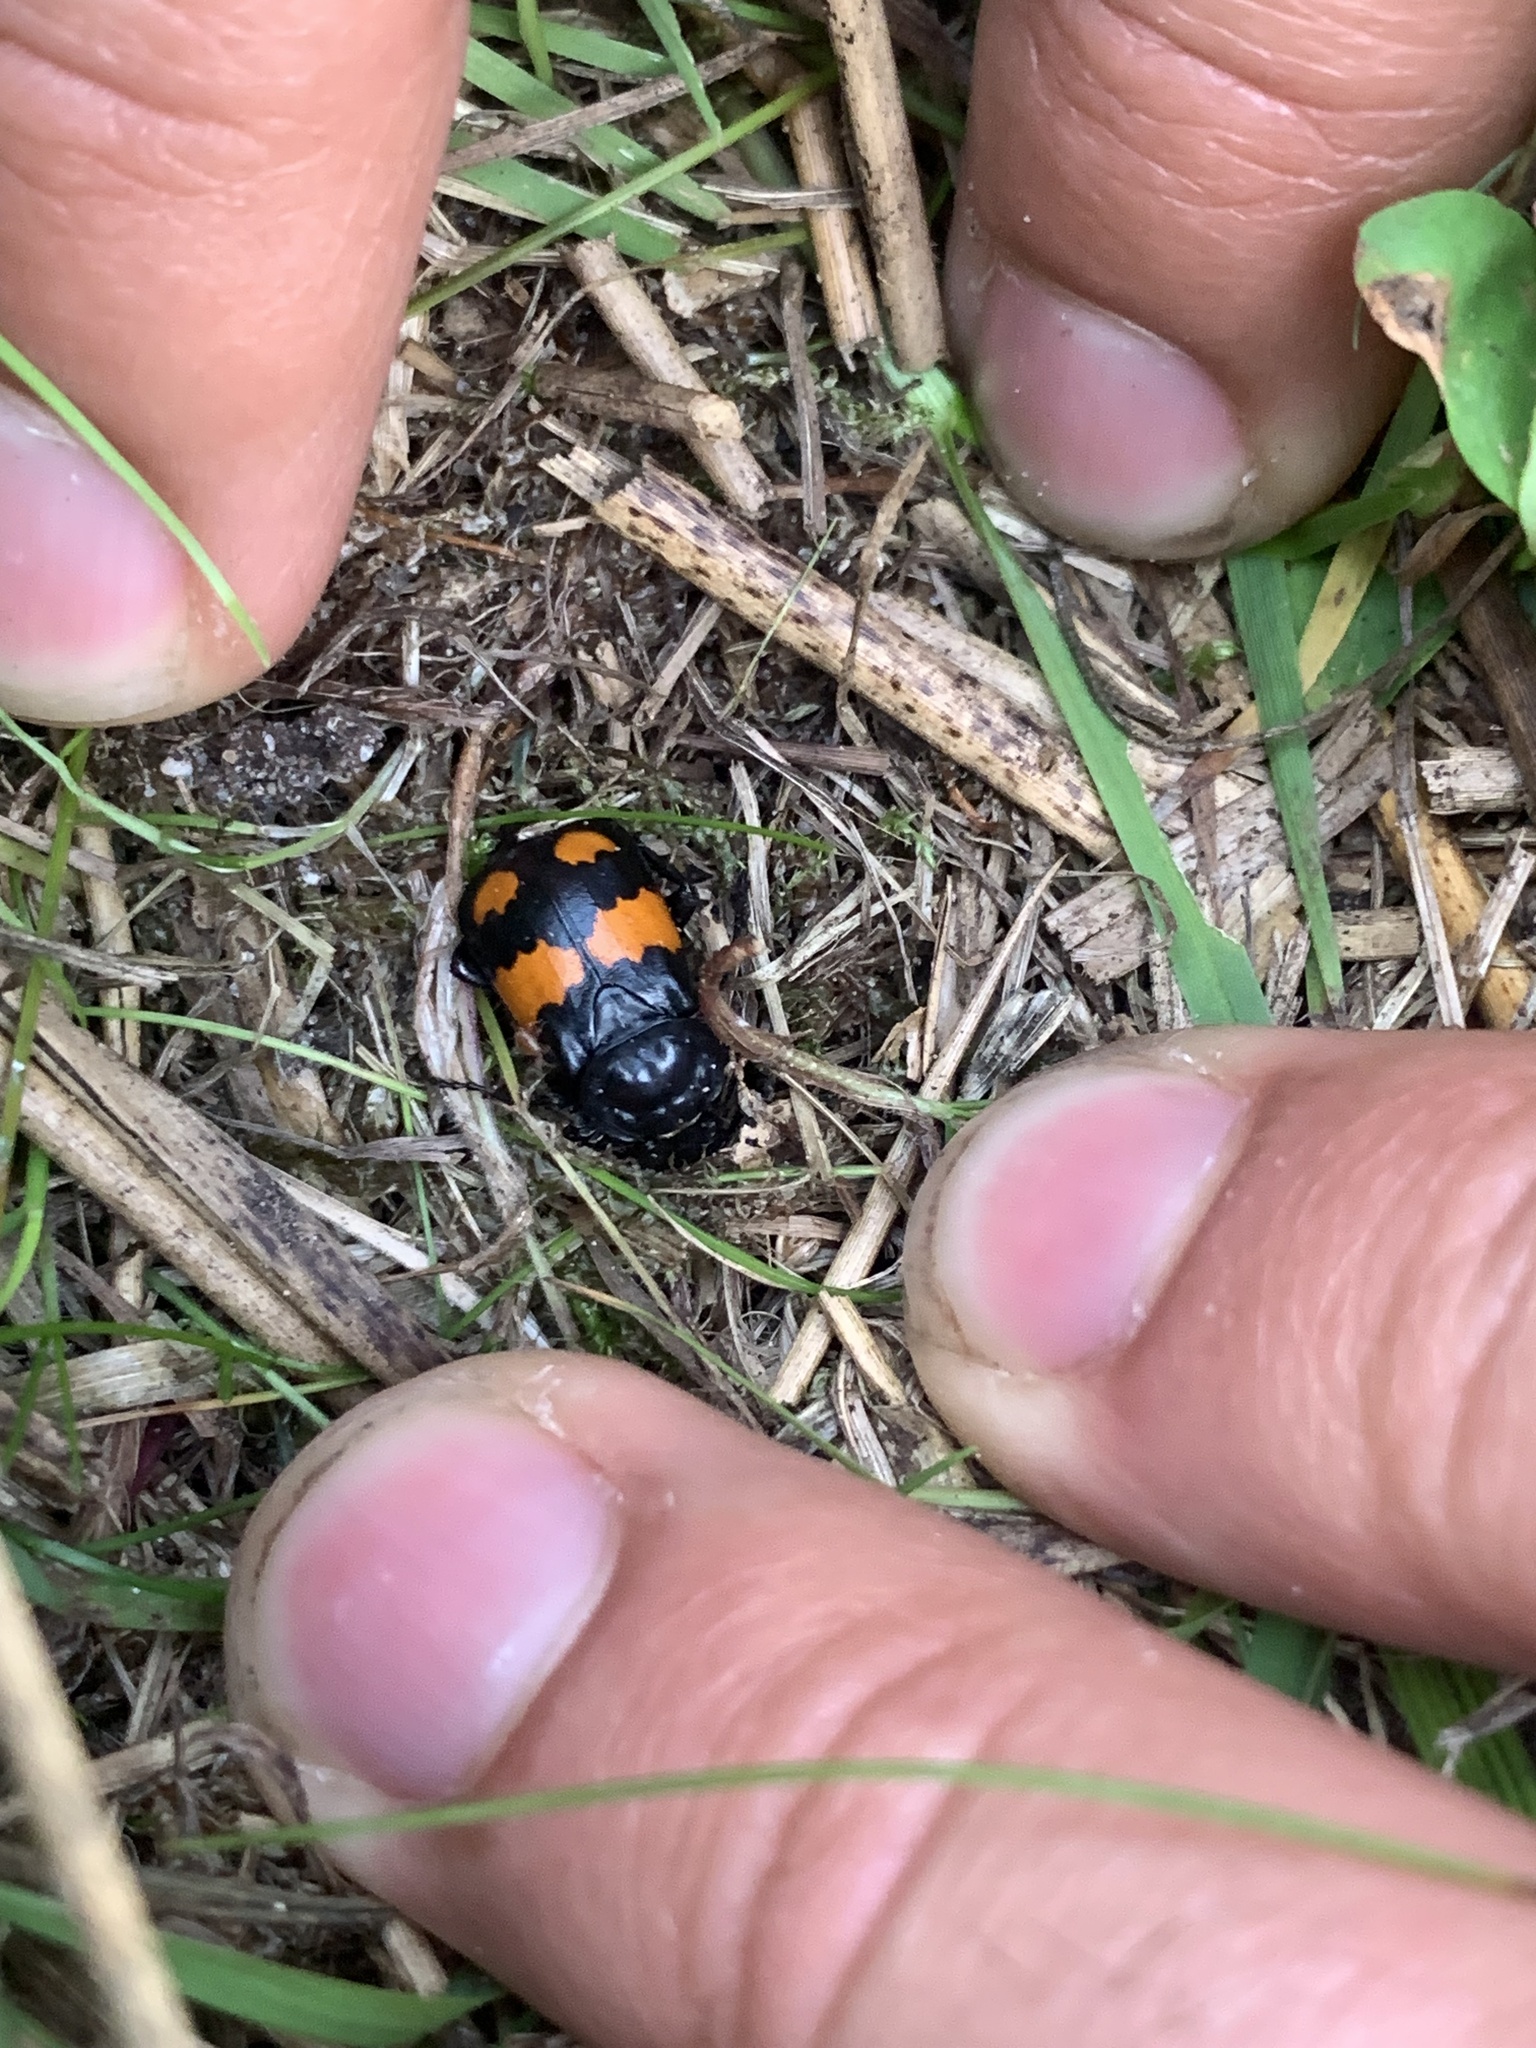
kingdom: Animalia
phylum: Arthropoda
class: Insecta
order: Coleoptera
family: Staphylinidae
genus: Nicrophorus
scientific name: Nicrophorus vespilloides
